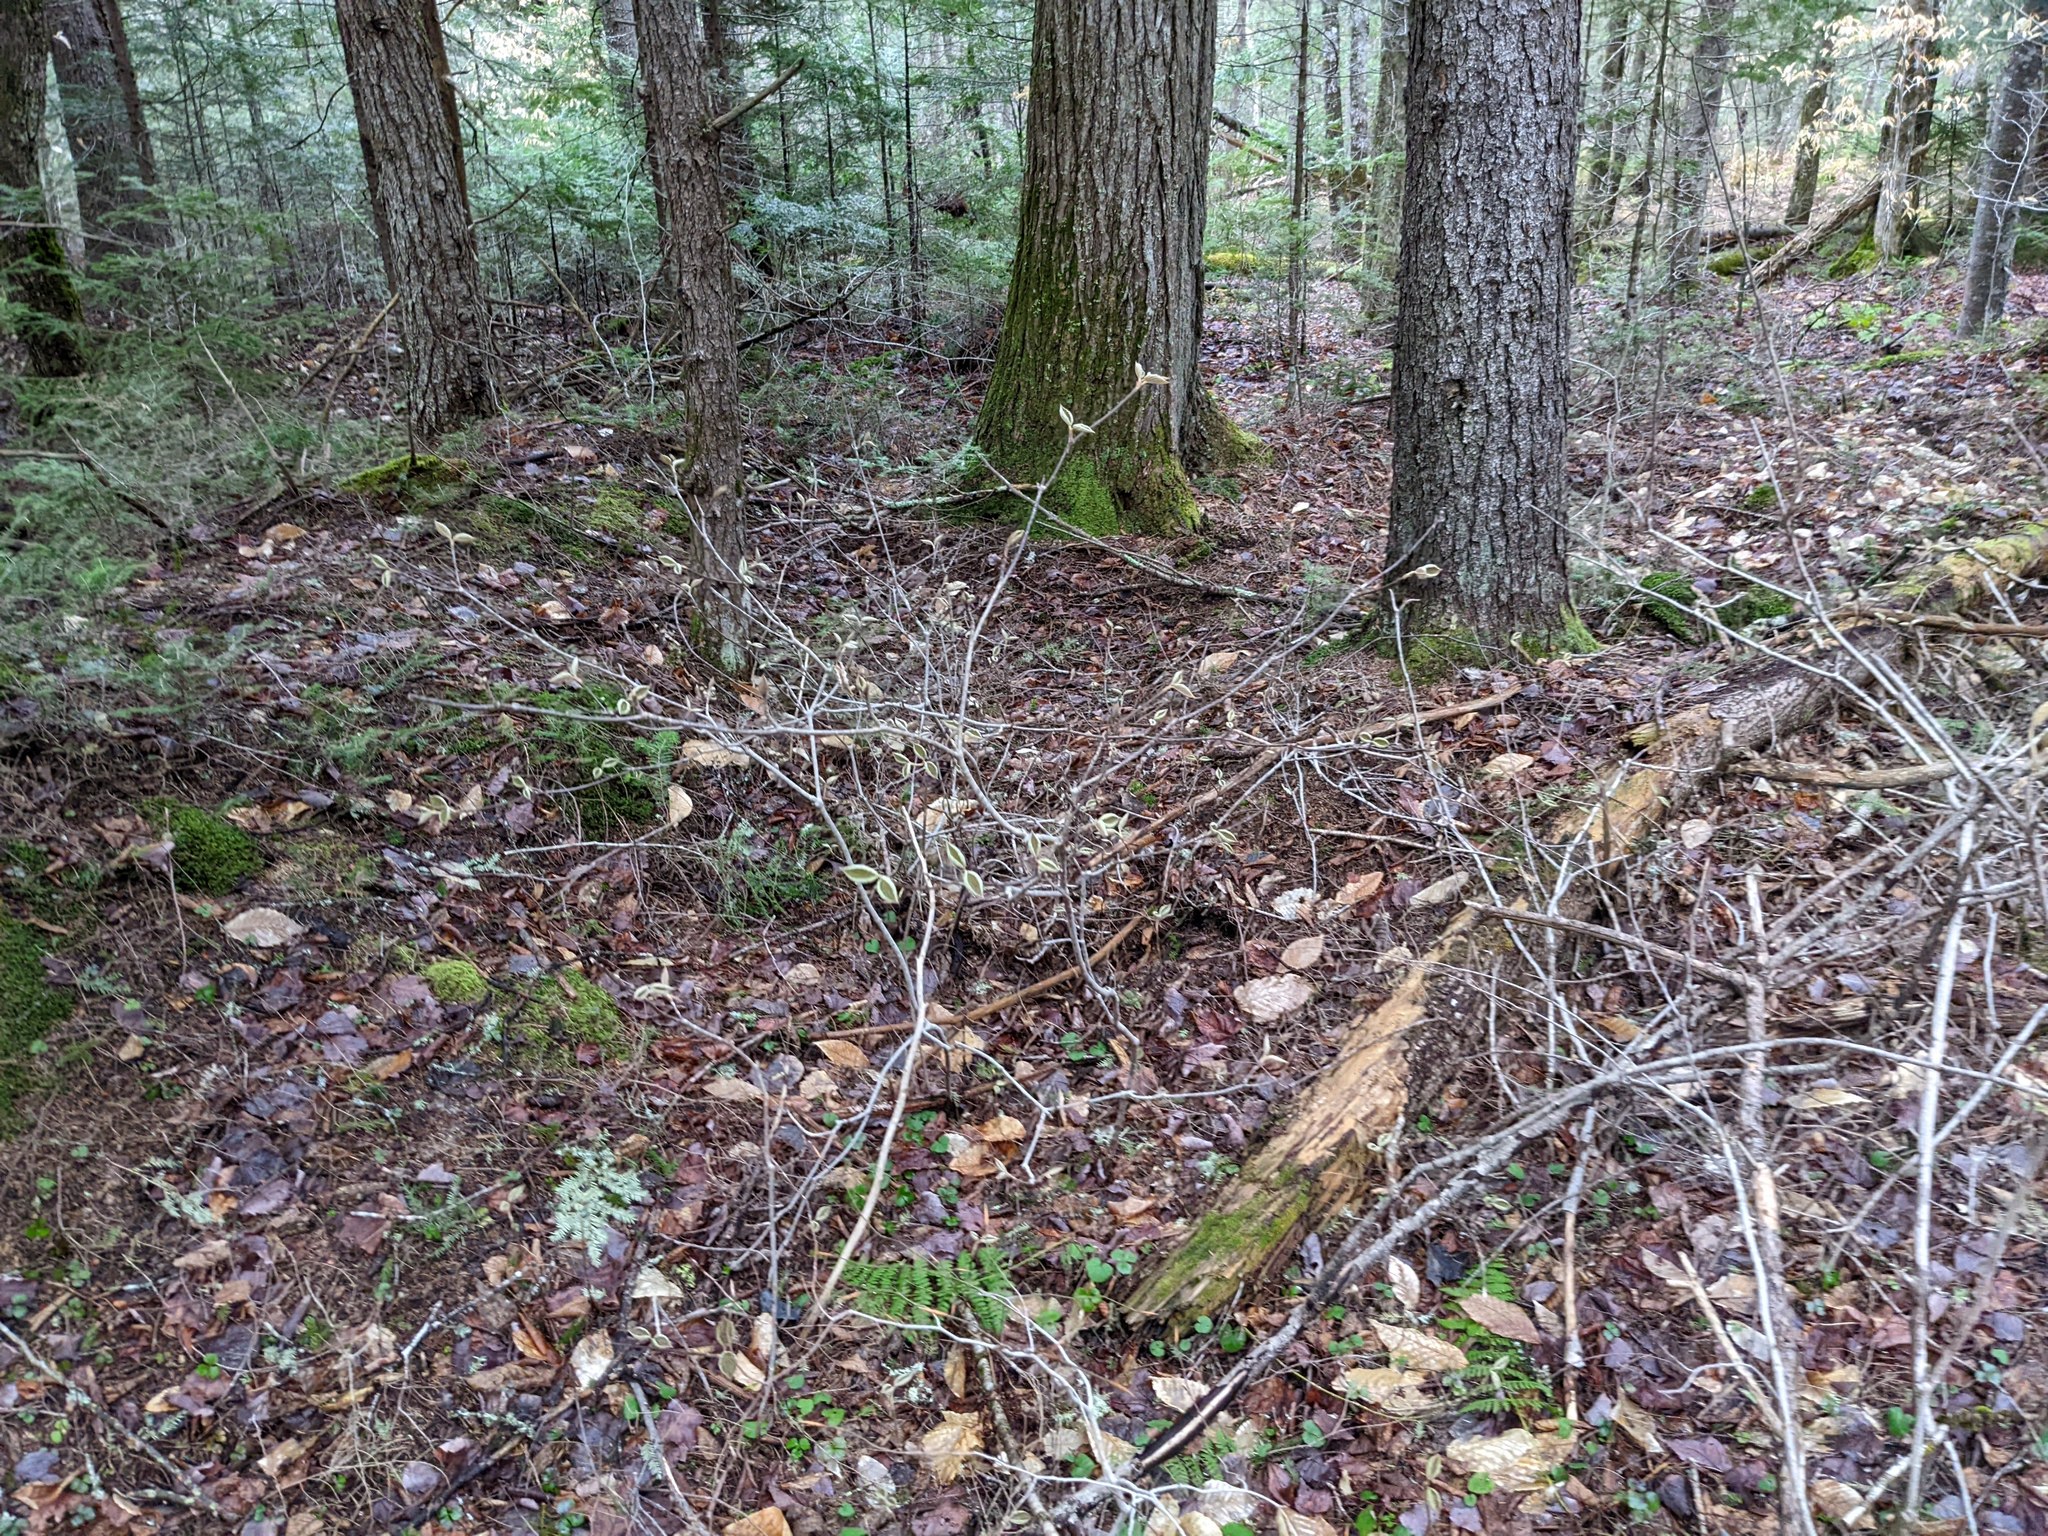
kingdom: Plantae
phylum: Tracheophyta
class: Magnoliopsida
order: Dipsacales
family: Viburnaceae
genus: Viburnum
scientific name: Viburnum lantanoides
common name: Hobblebush
